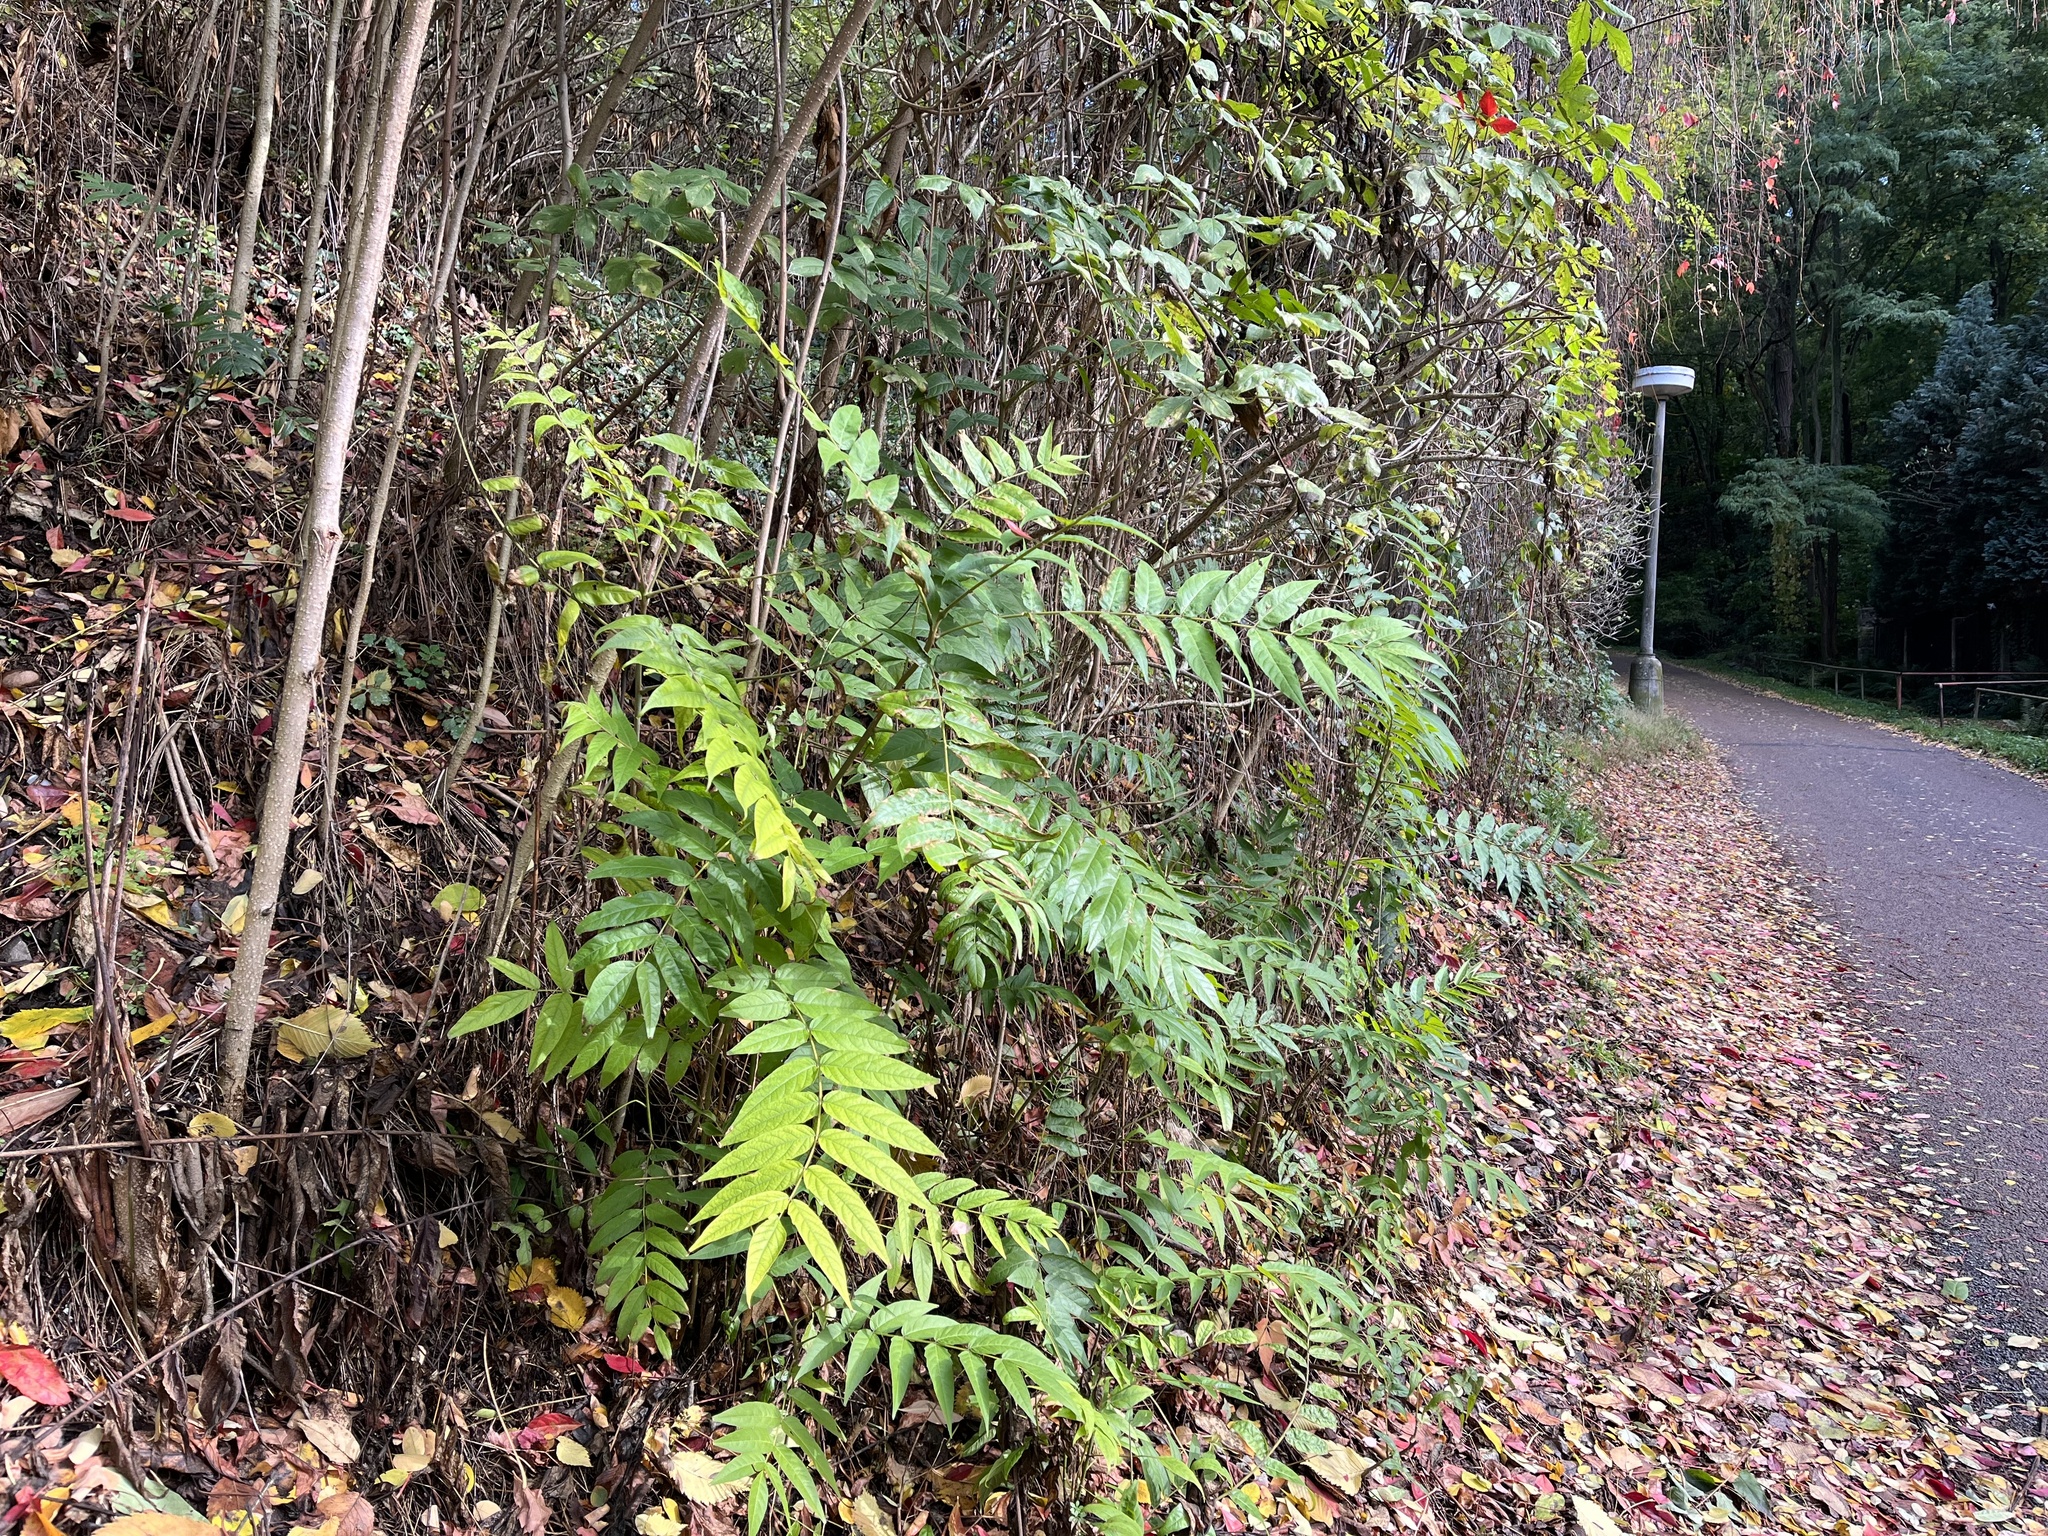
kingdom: Plantae
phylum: Tracheophyta
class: Magnoliopsida
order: Sapindales
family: Simaroubaceae
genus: Ailanthus
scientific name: Ailanthus altissima
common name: Tree-of-heaven
